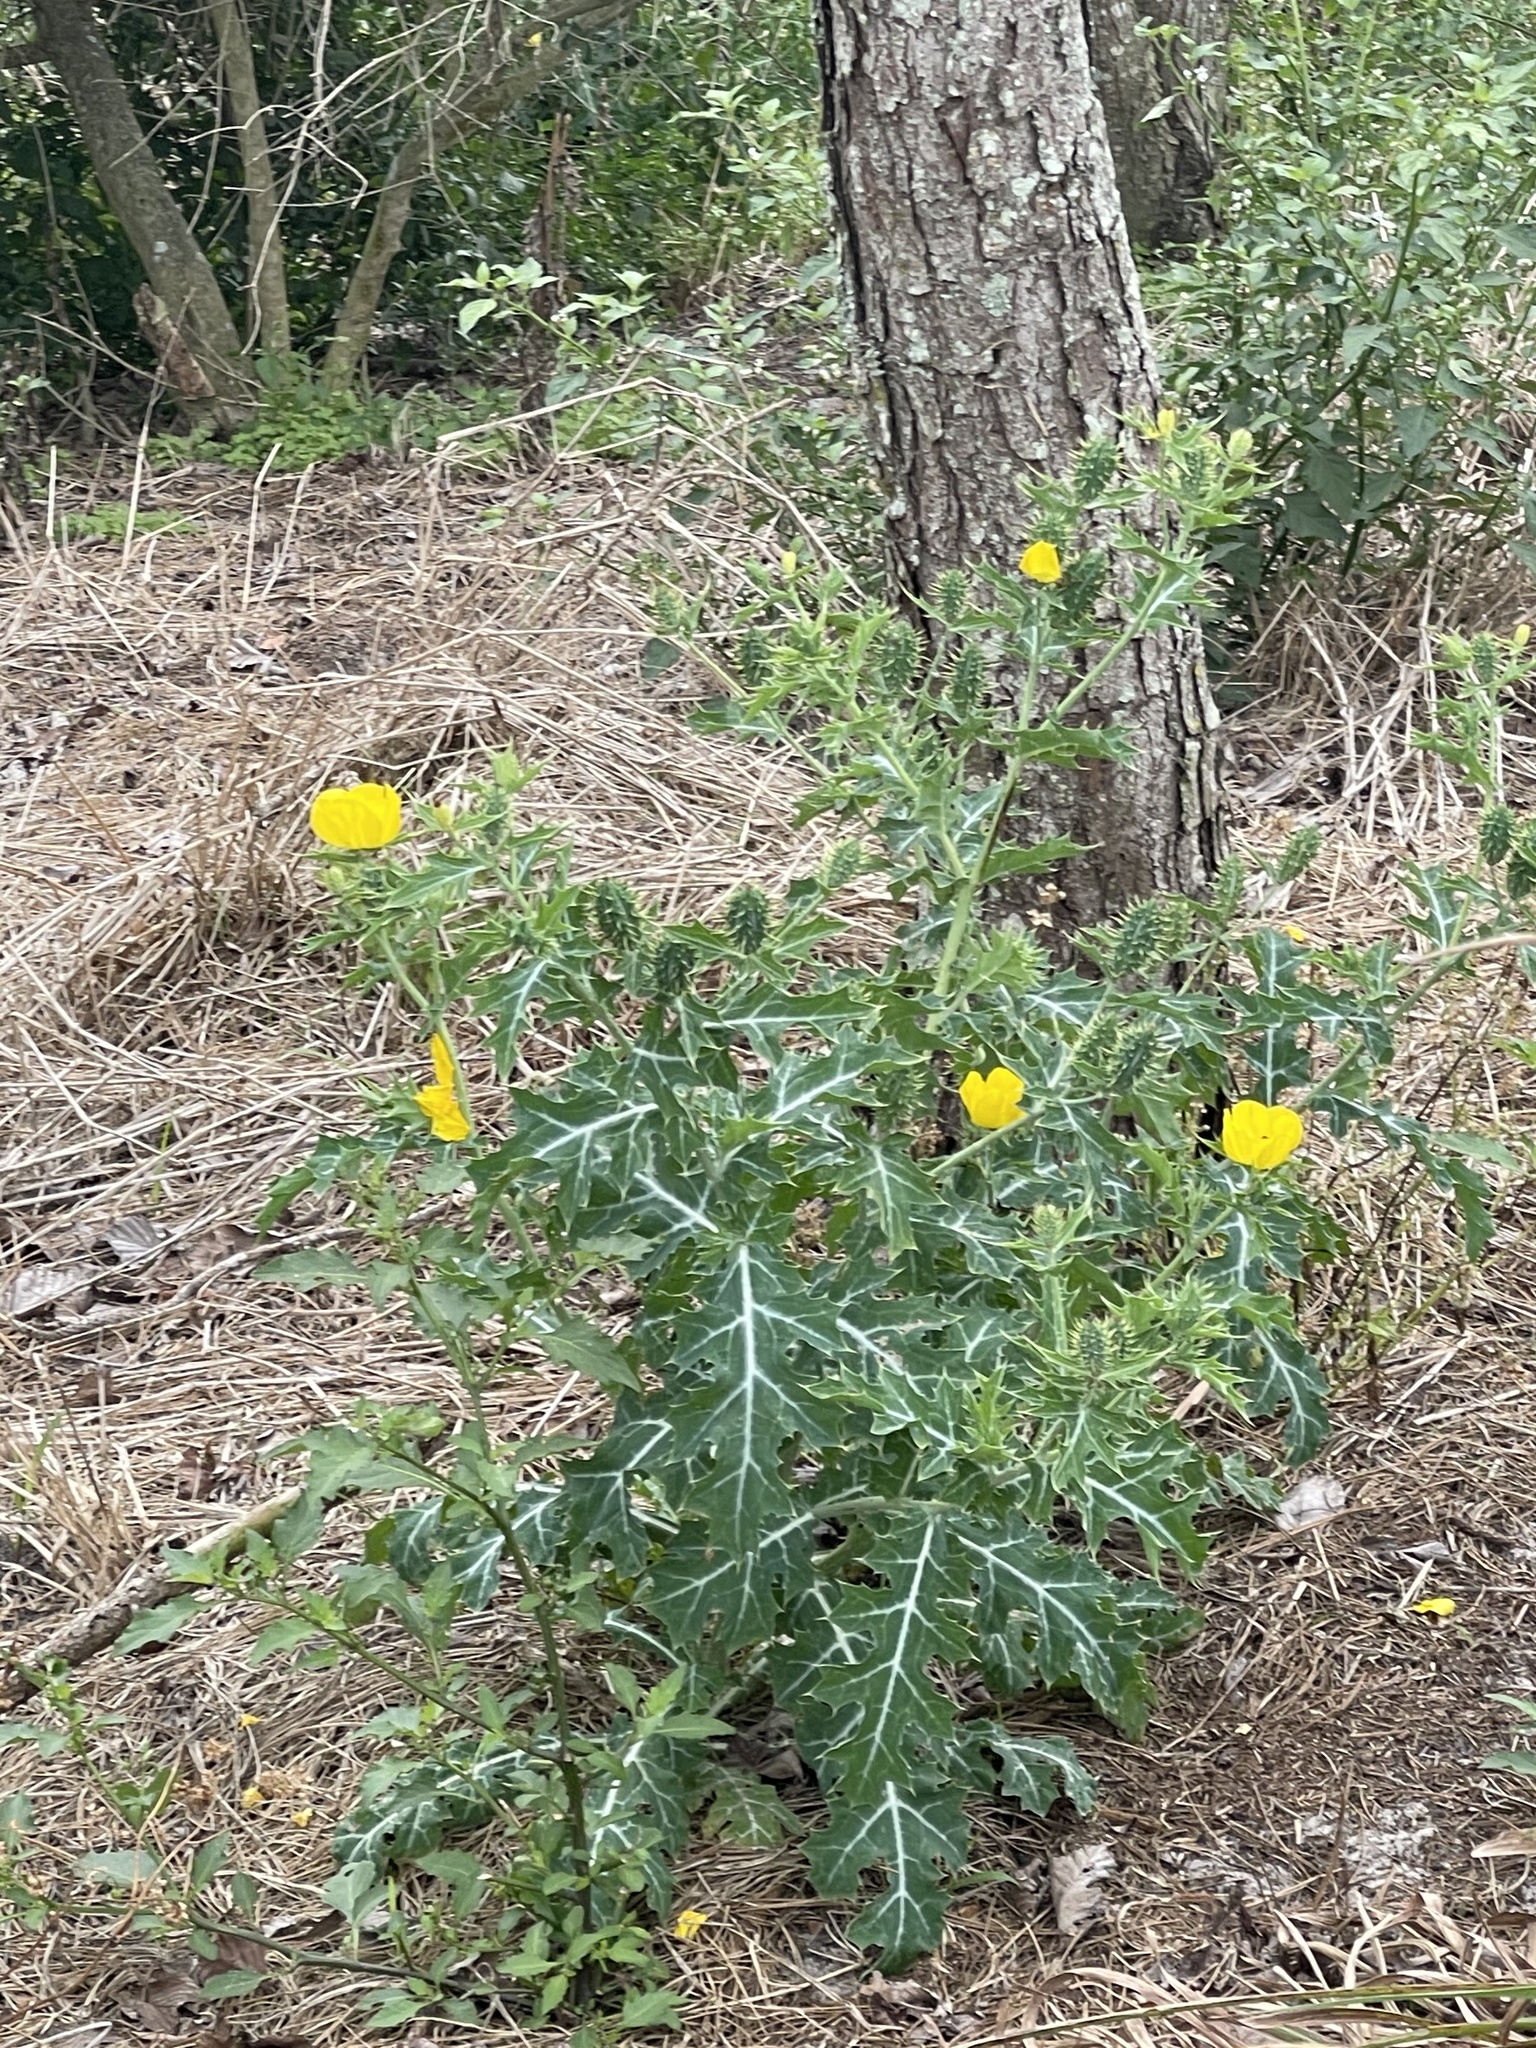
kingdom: Plantae
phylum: Tracheophyta
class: Magnoliopsida
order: Ranunculales
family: Papaveraceae
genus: Argemone
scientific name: Argemone mexicana
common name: Mexican poppy
